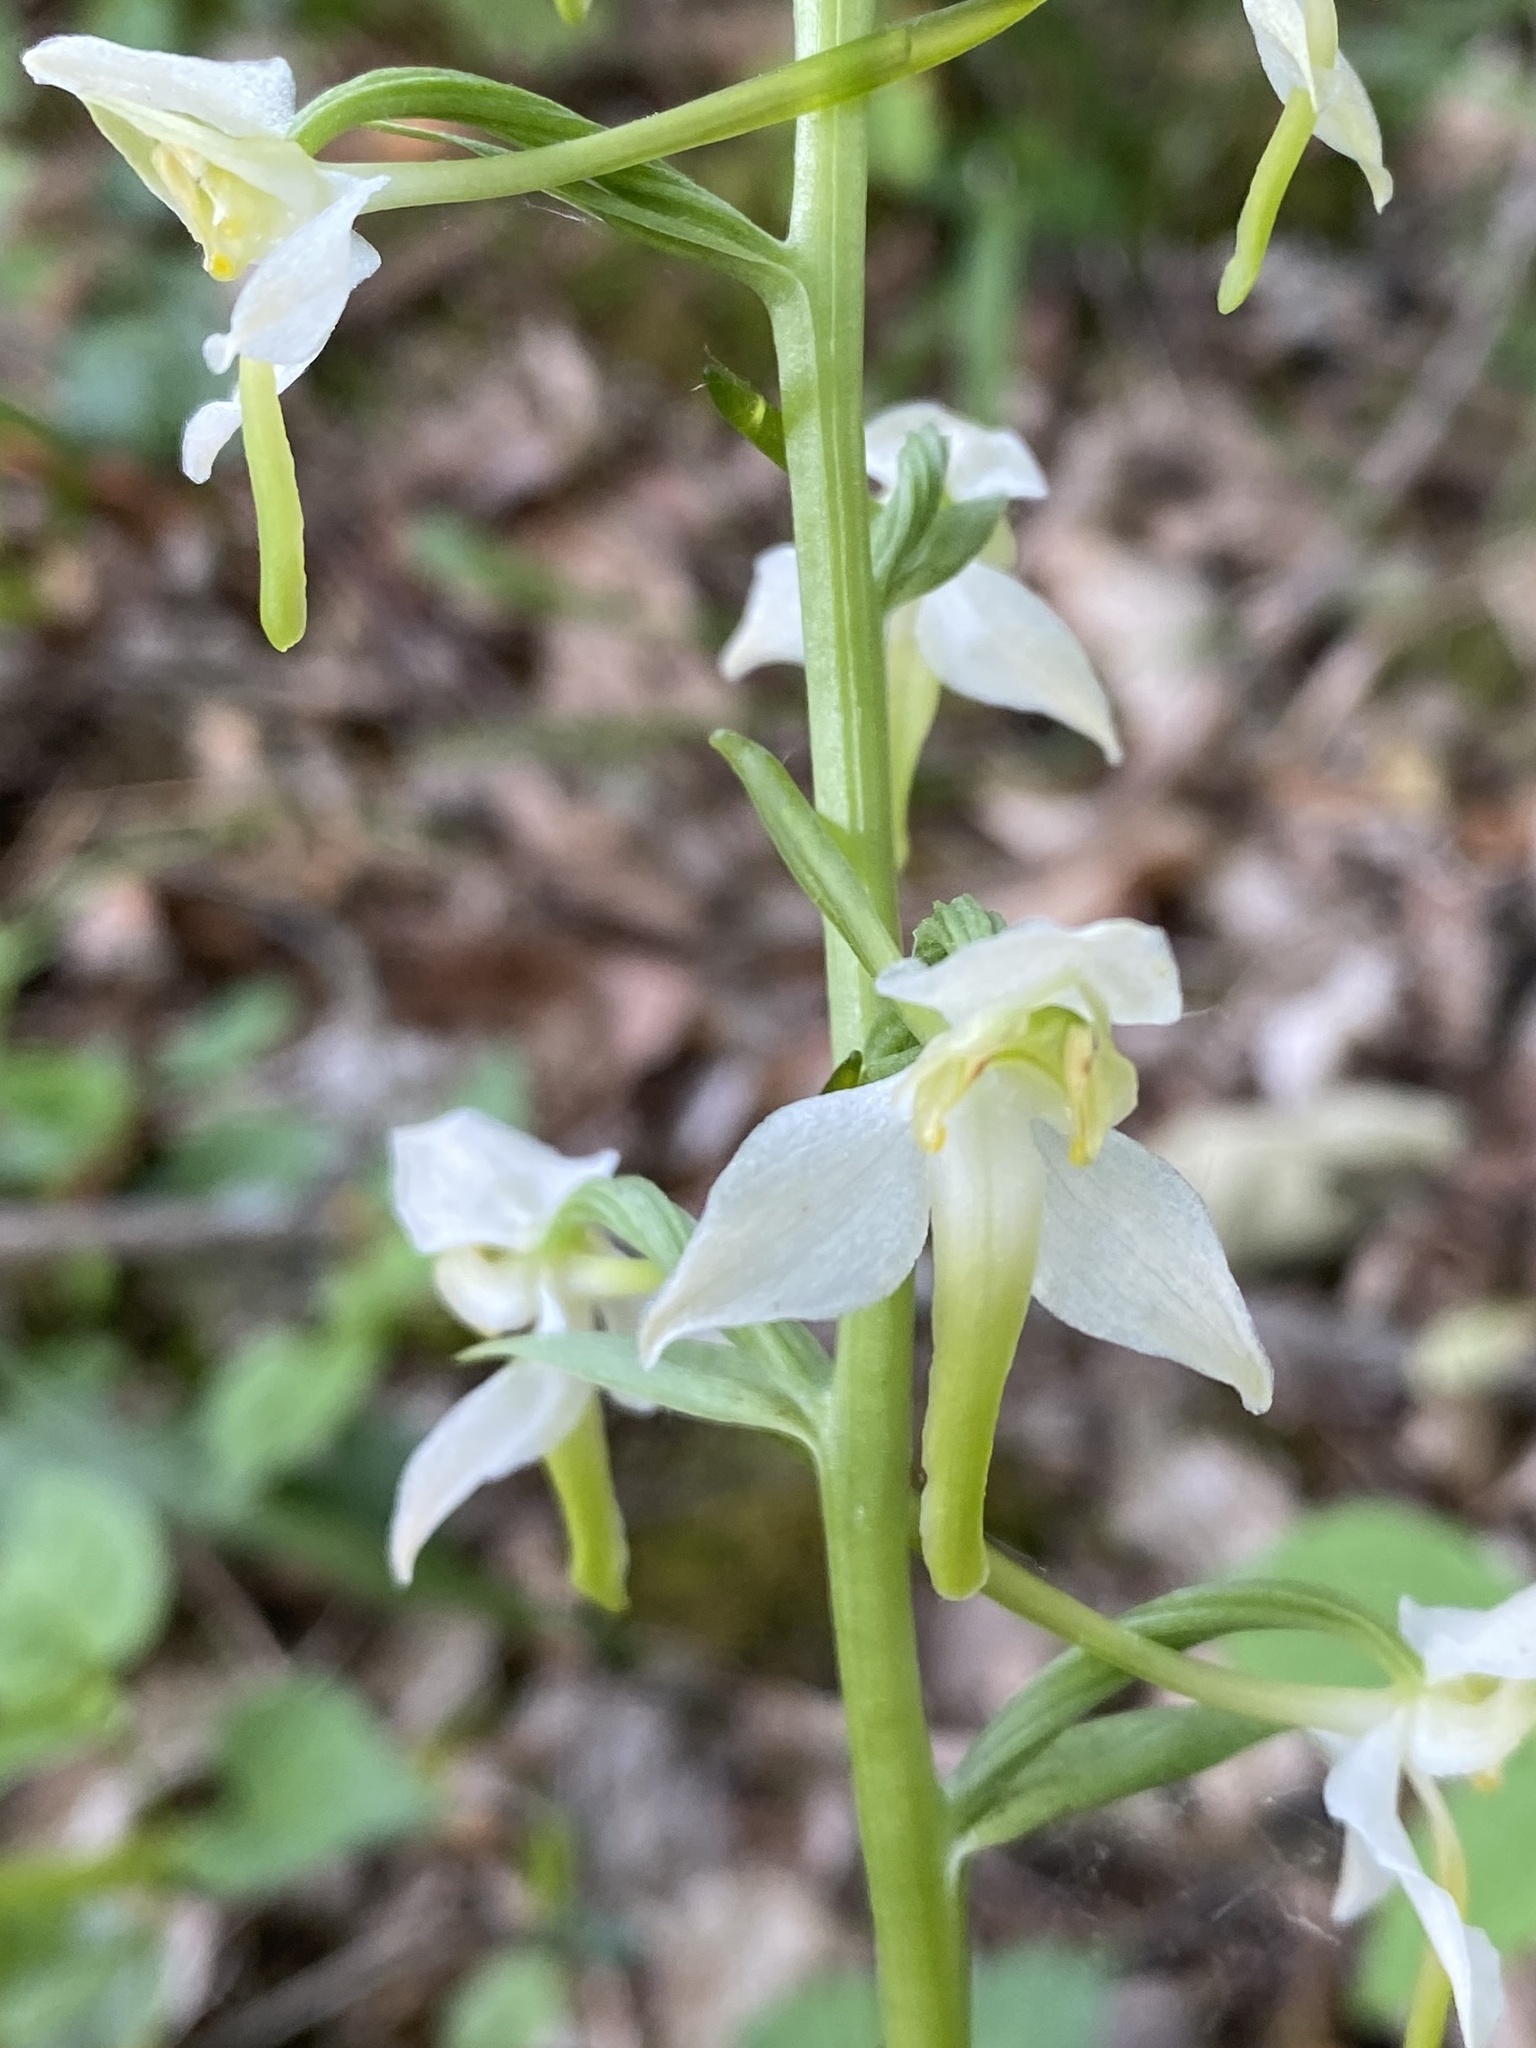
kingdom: Plantae
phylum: Tracheophyta
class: Liliopsida
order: Asparagales
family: Orchidaceae
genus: Platanthera
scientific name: Platanthera chlorantha
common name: Greater butterfly-orchid
